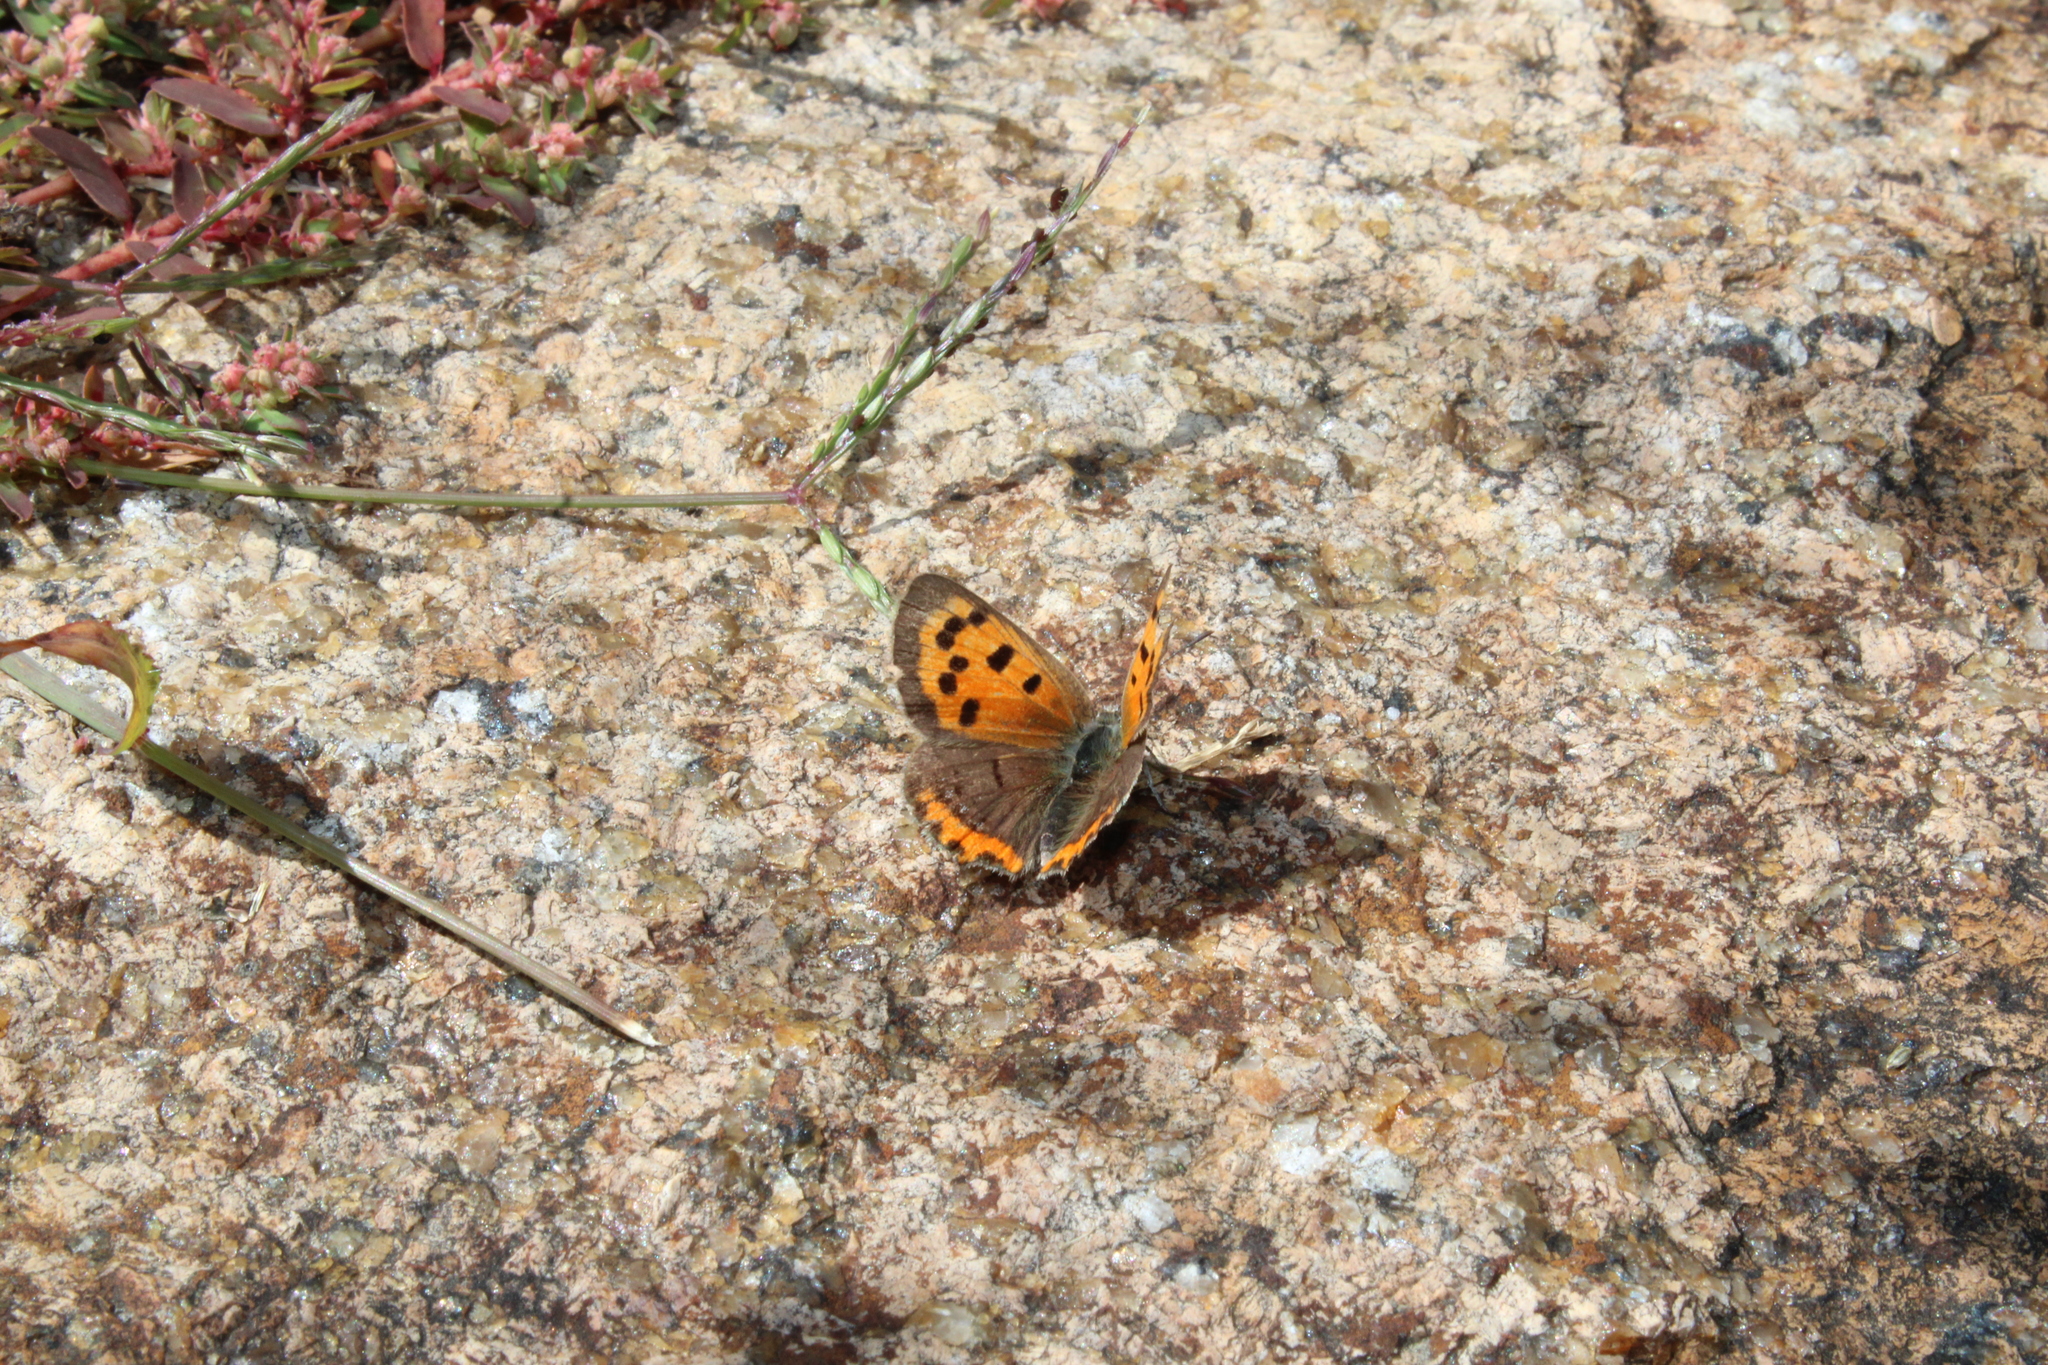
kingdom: Animalia
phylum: Arthropoda
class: Insecta
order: Lepidoptera
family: Lycaenidae
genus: Lycaena
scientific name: Lycaena hypophlaeas
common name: American copper
